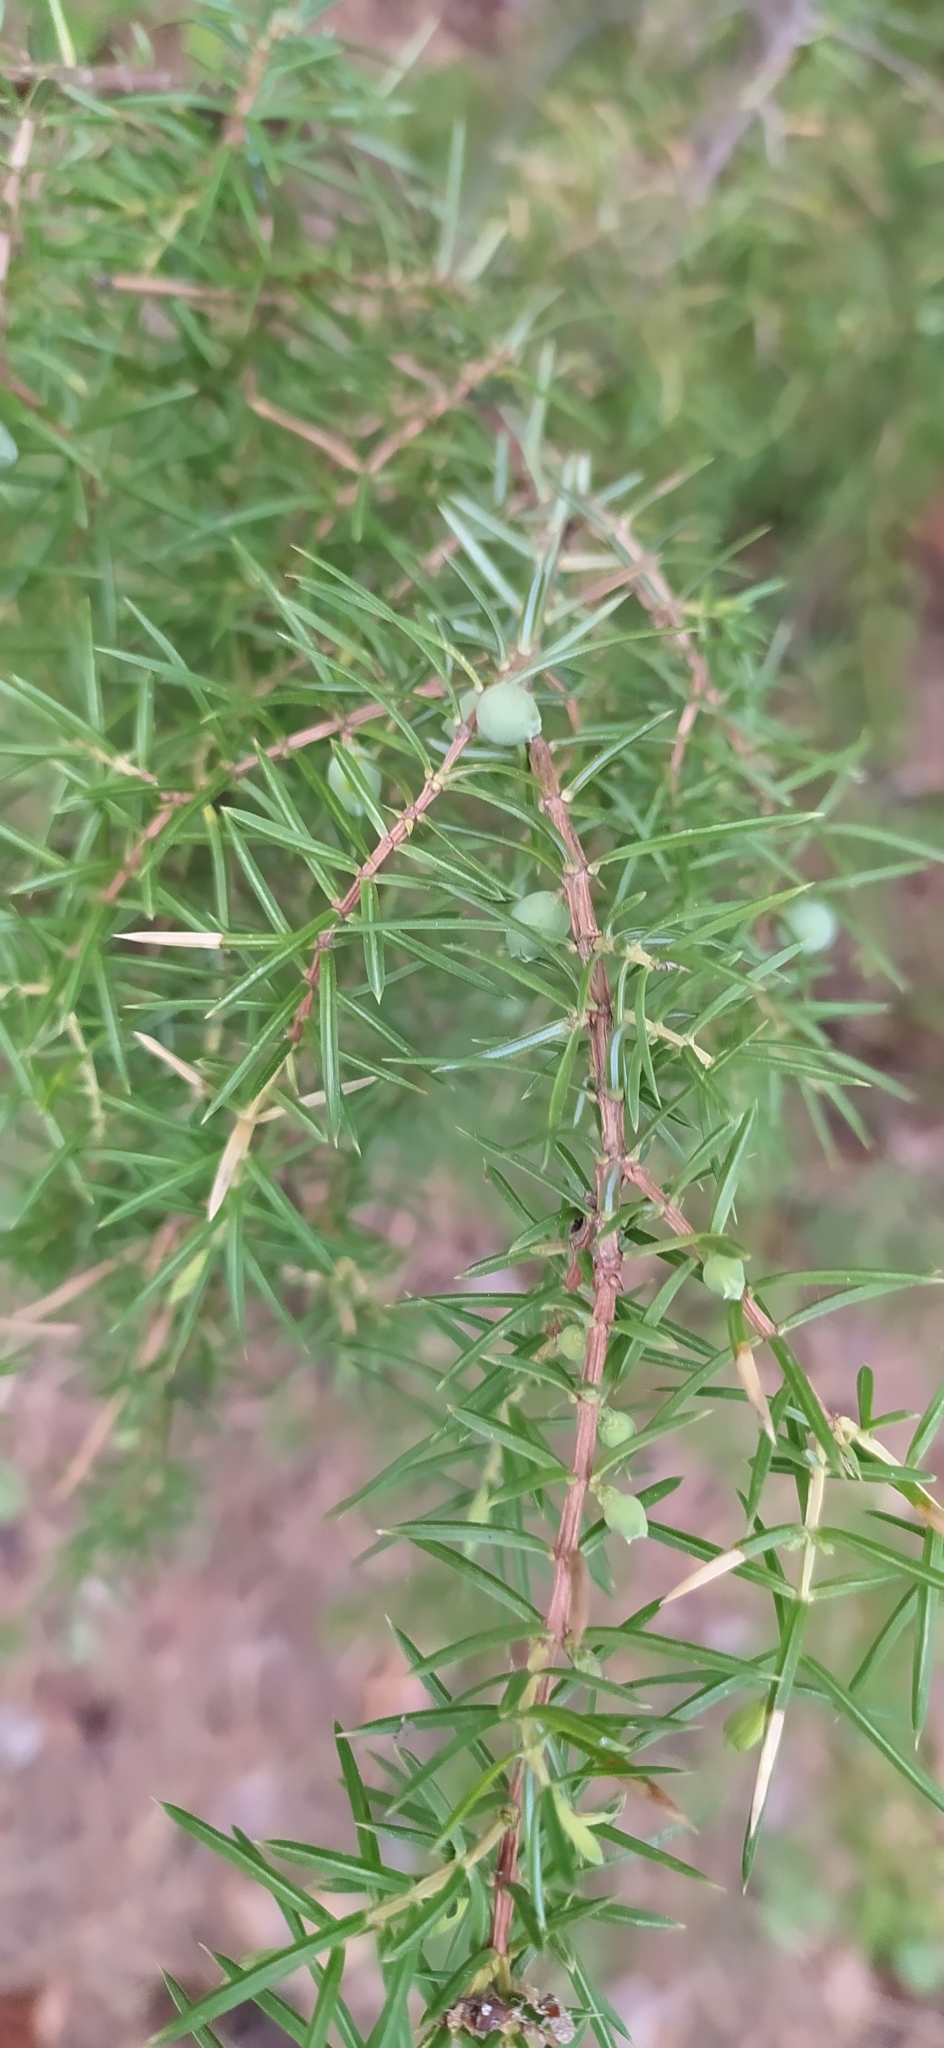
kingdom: Plantae
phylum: Tracheophyta
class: Pinopsida
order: Pinales
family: Cupressaceae
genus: Juniperus
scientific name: Juniperus communis
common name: Common juniper
